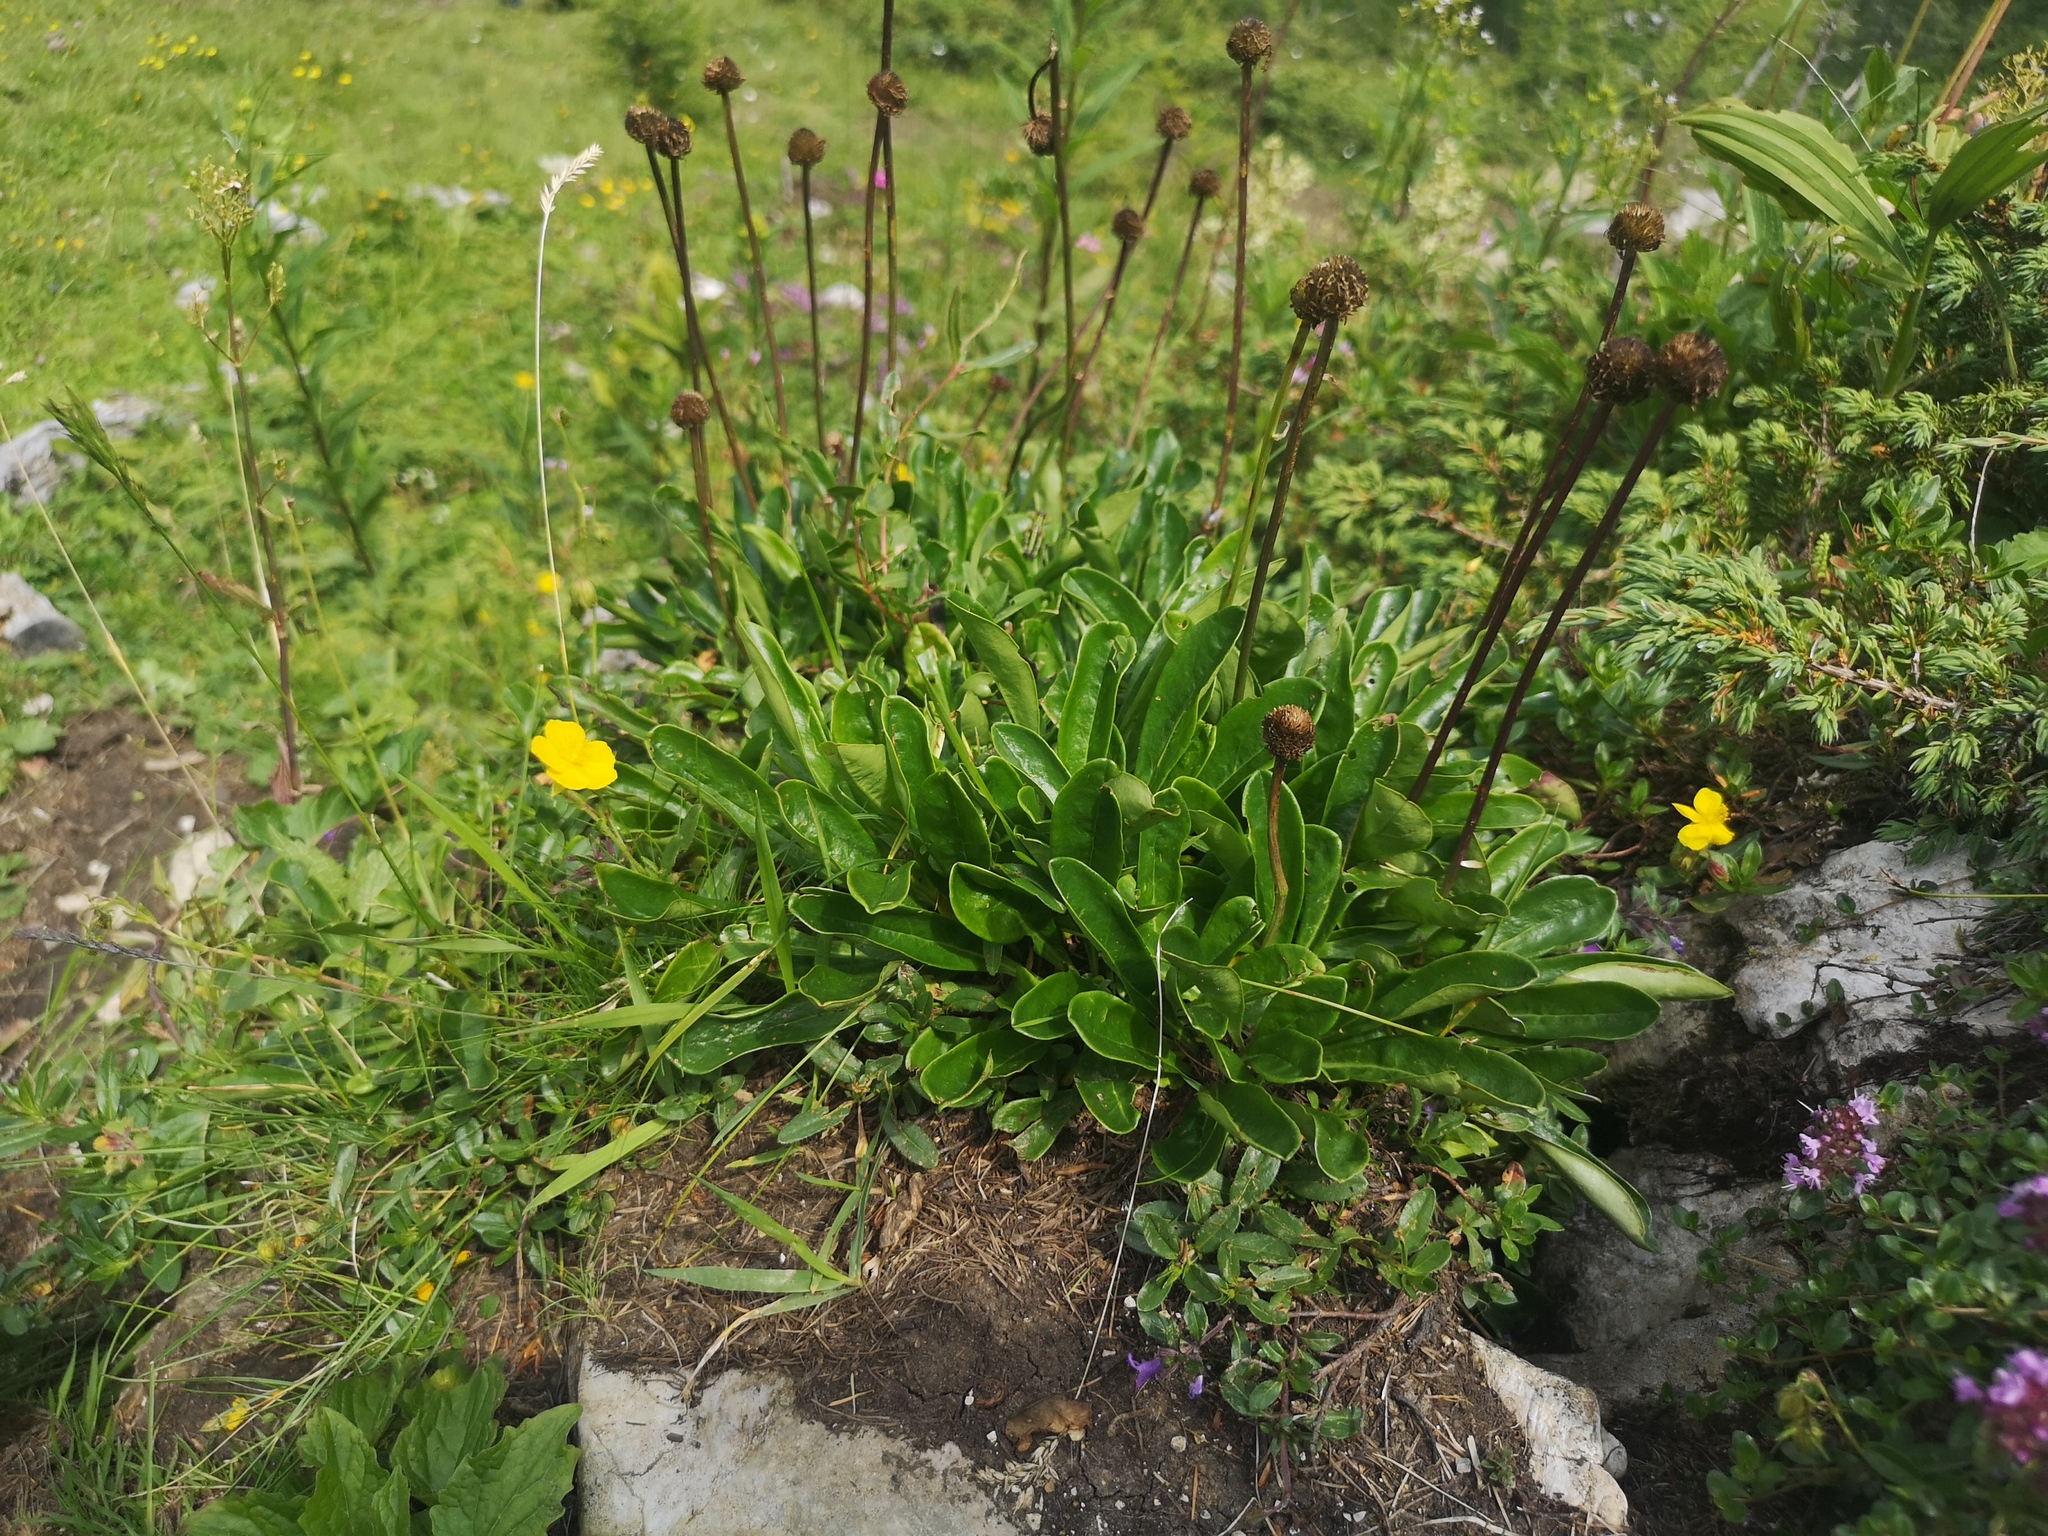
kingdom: Plantae
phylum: Tracheophyta
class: Magnoliopsida
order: Lamiales
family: Plantaginaceae
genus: Globularia
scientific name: Globularia nudicaulis
